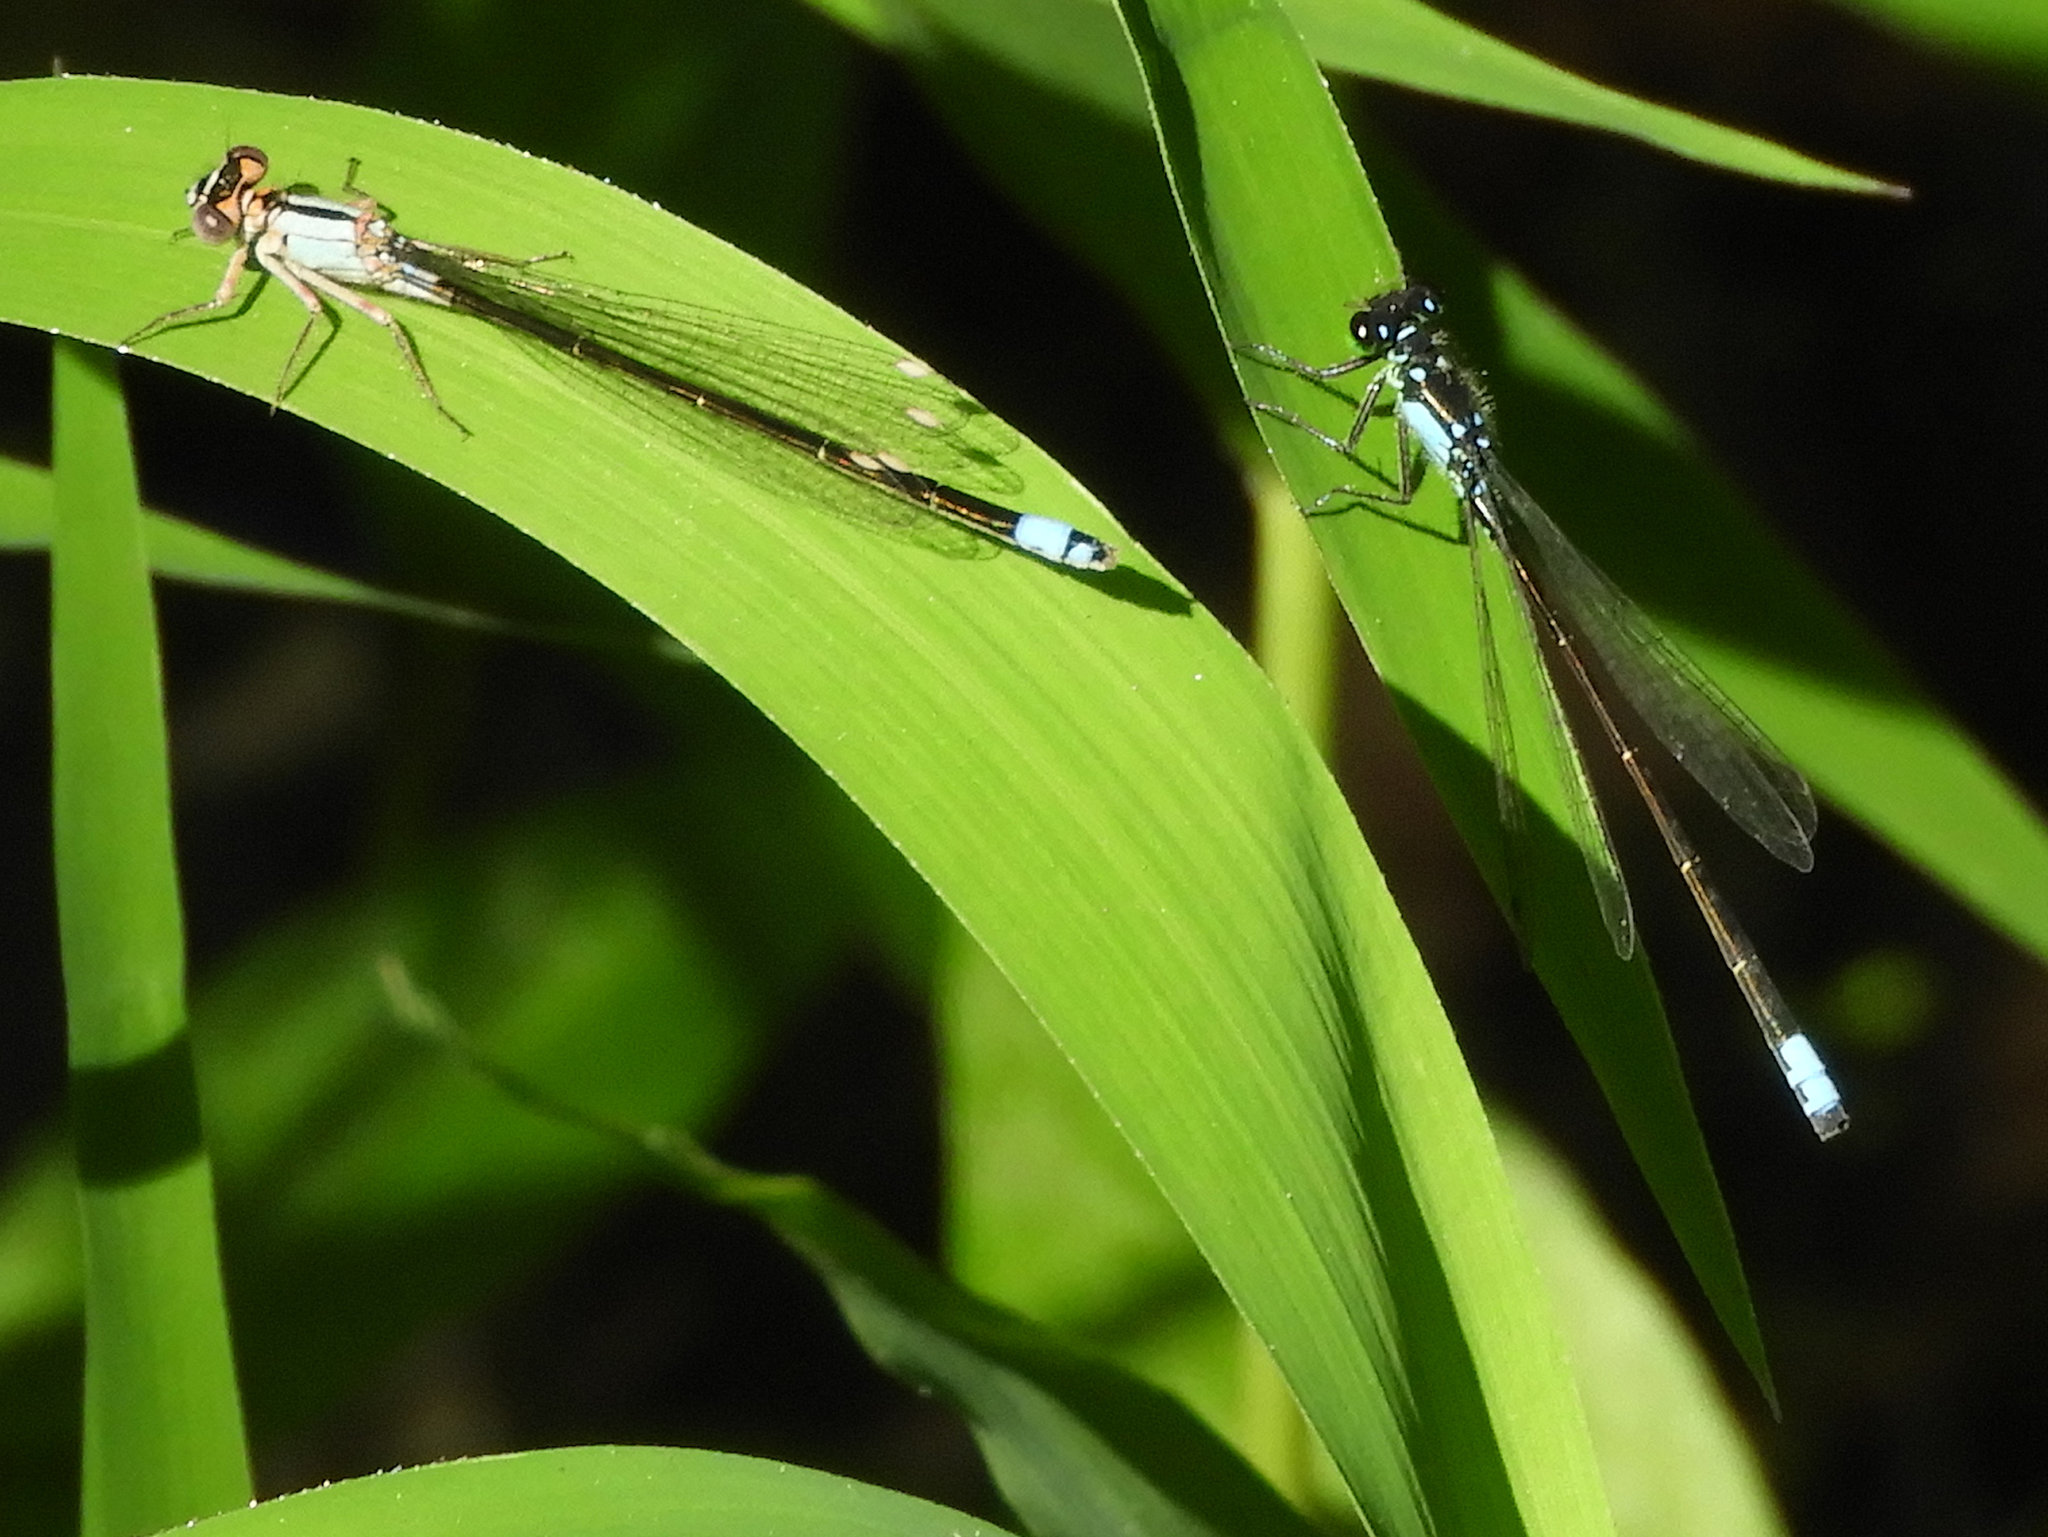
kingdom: Animalia
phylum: Arthropoda
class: Insecta
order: Odonata
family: Coenagrionidae
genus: Ischnura
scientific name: Ischnura cervula
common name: Pacific forktail
